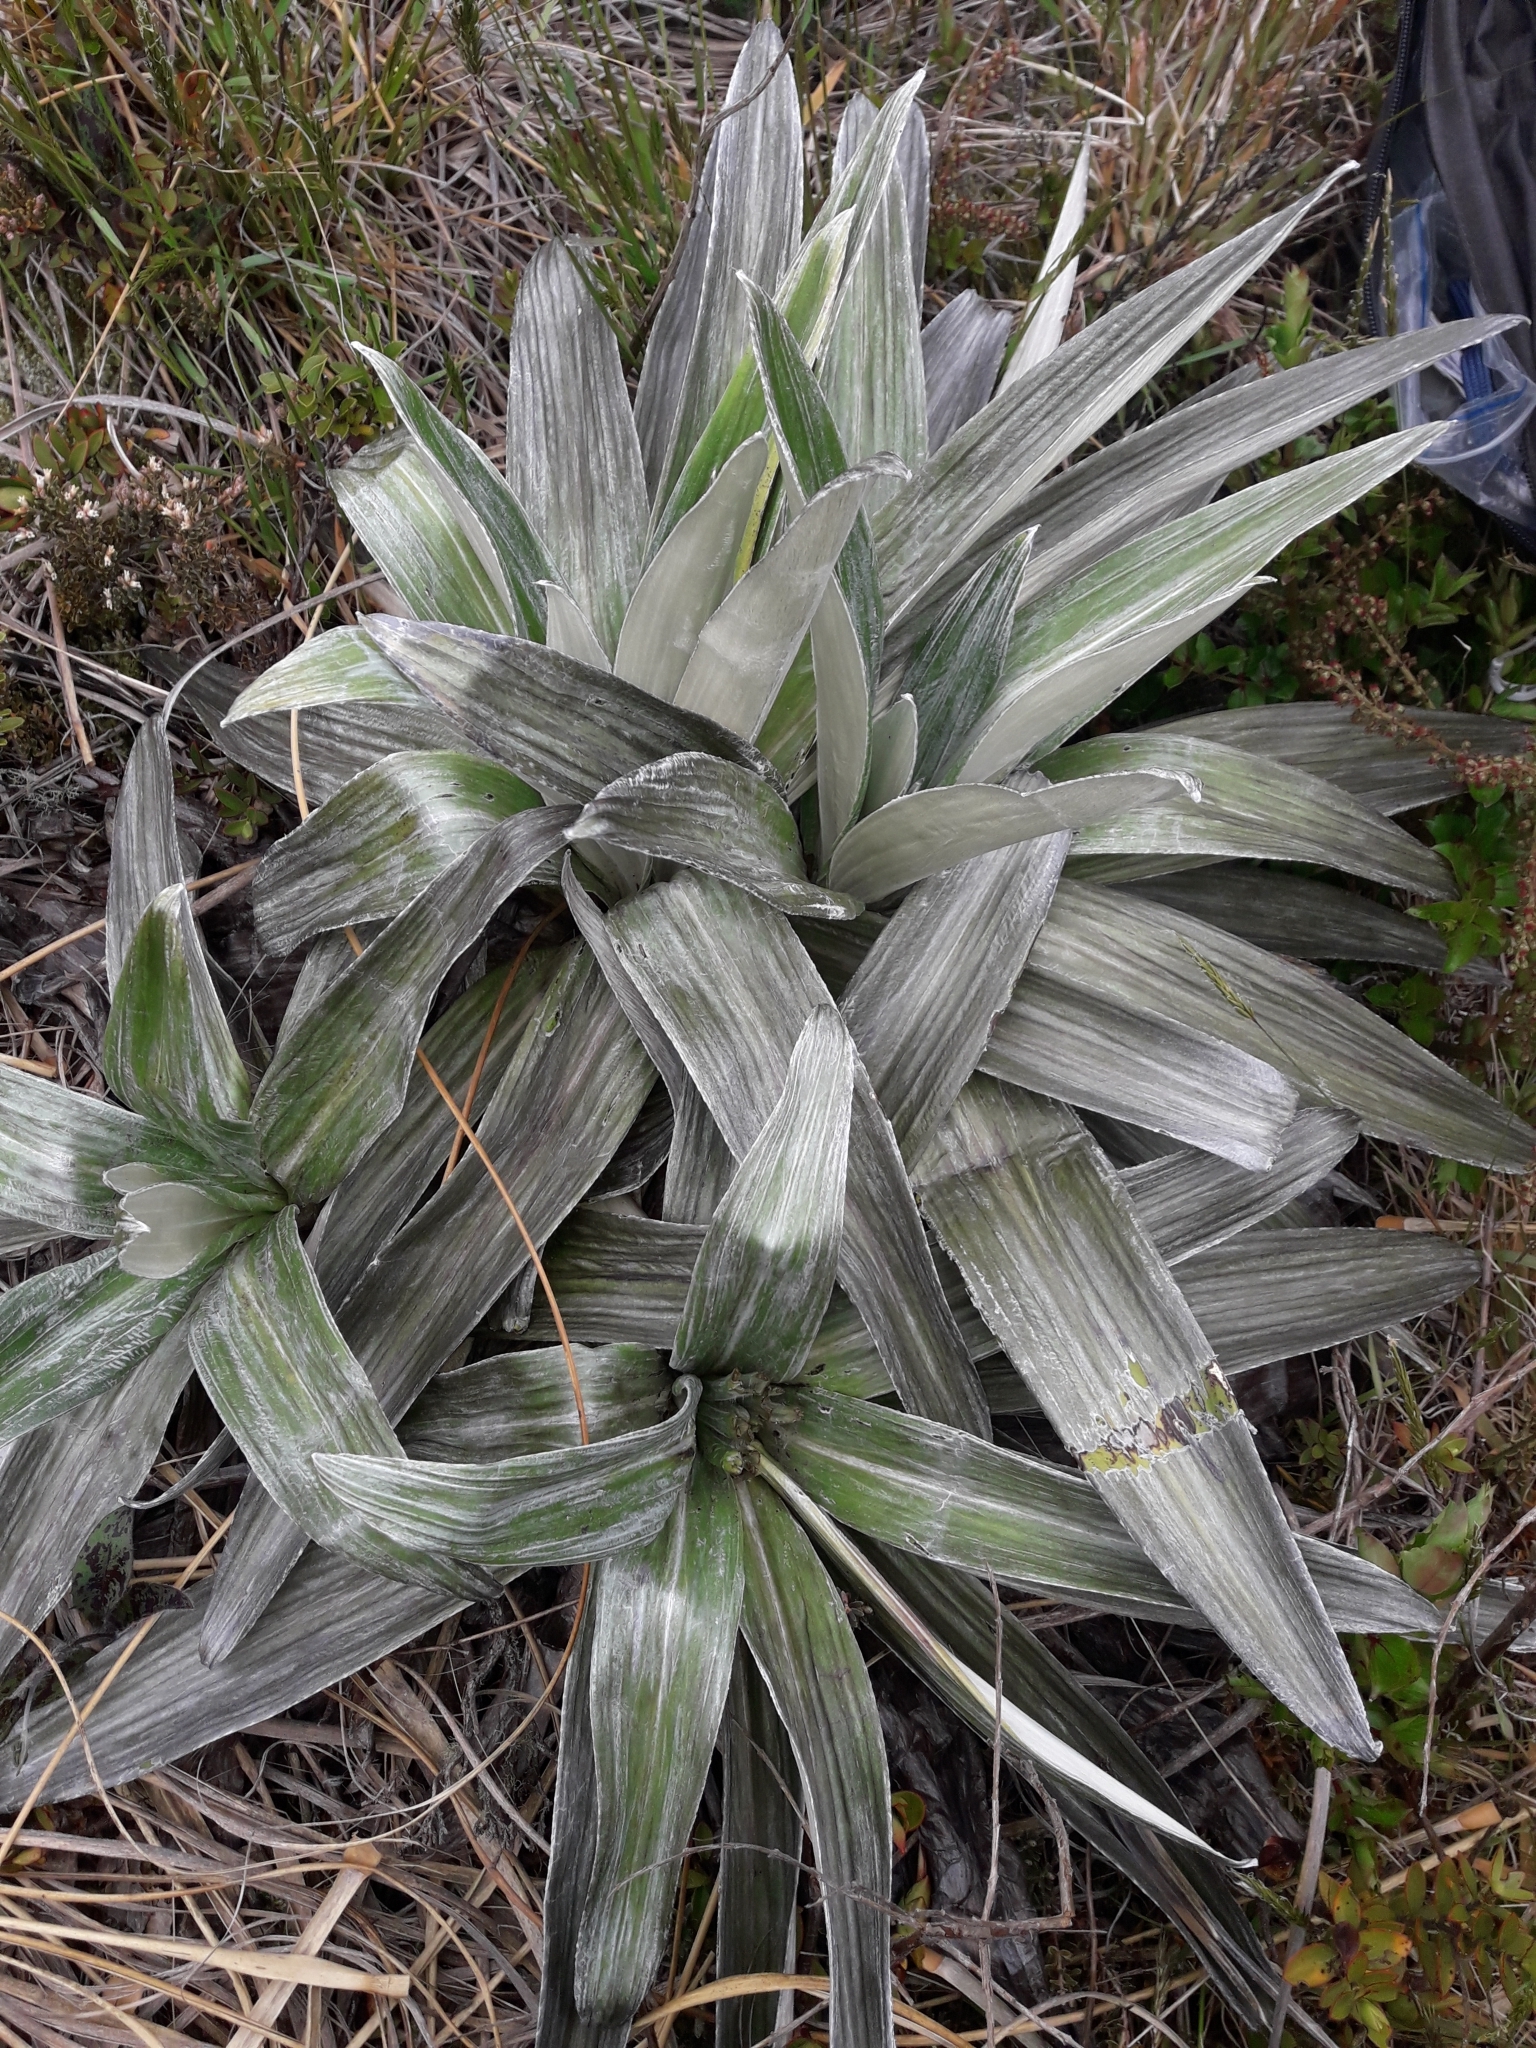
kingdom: Plantae
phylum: Tracheophyta
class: Magnoliopsida
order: Asterales
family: Asteraceae
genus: Celmisia
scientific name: Celmisia semicordata
